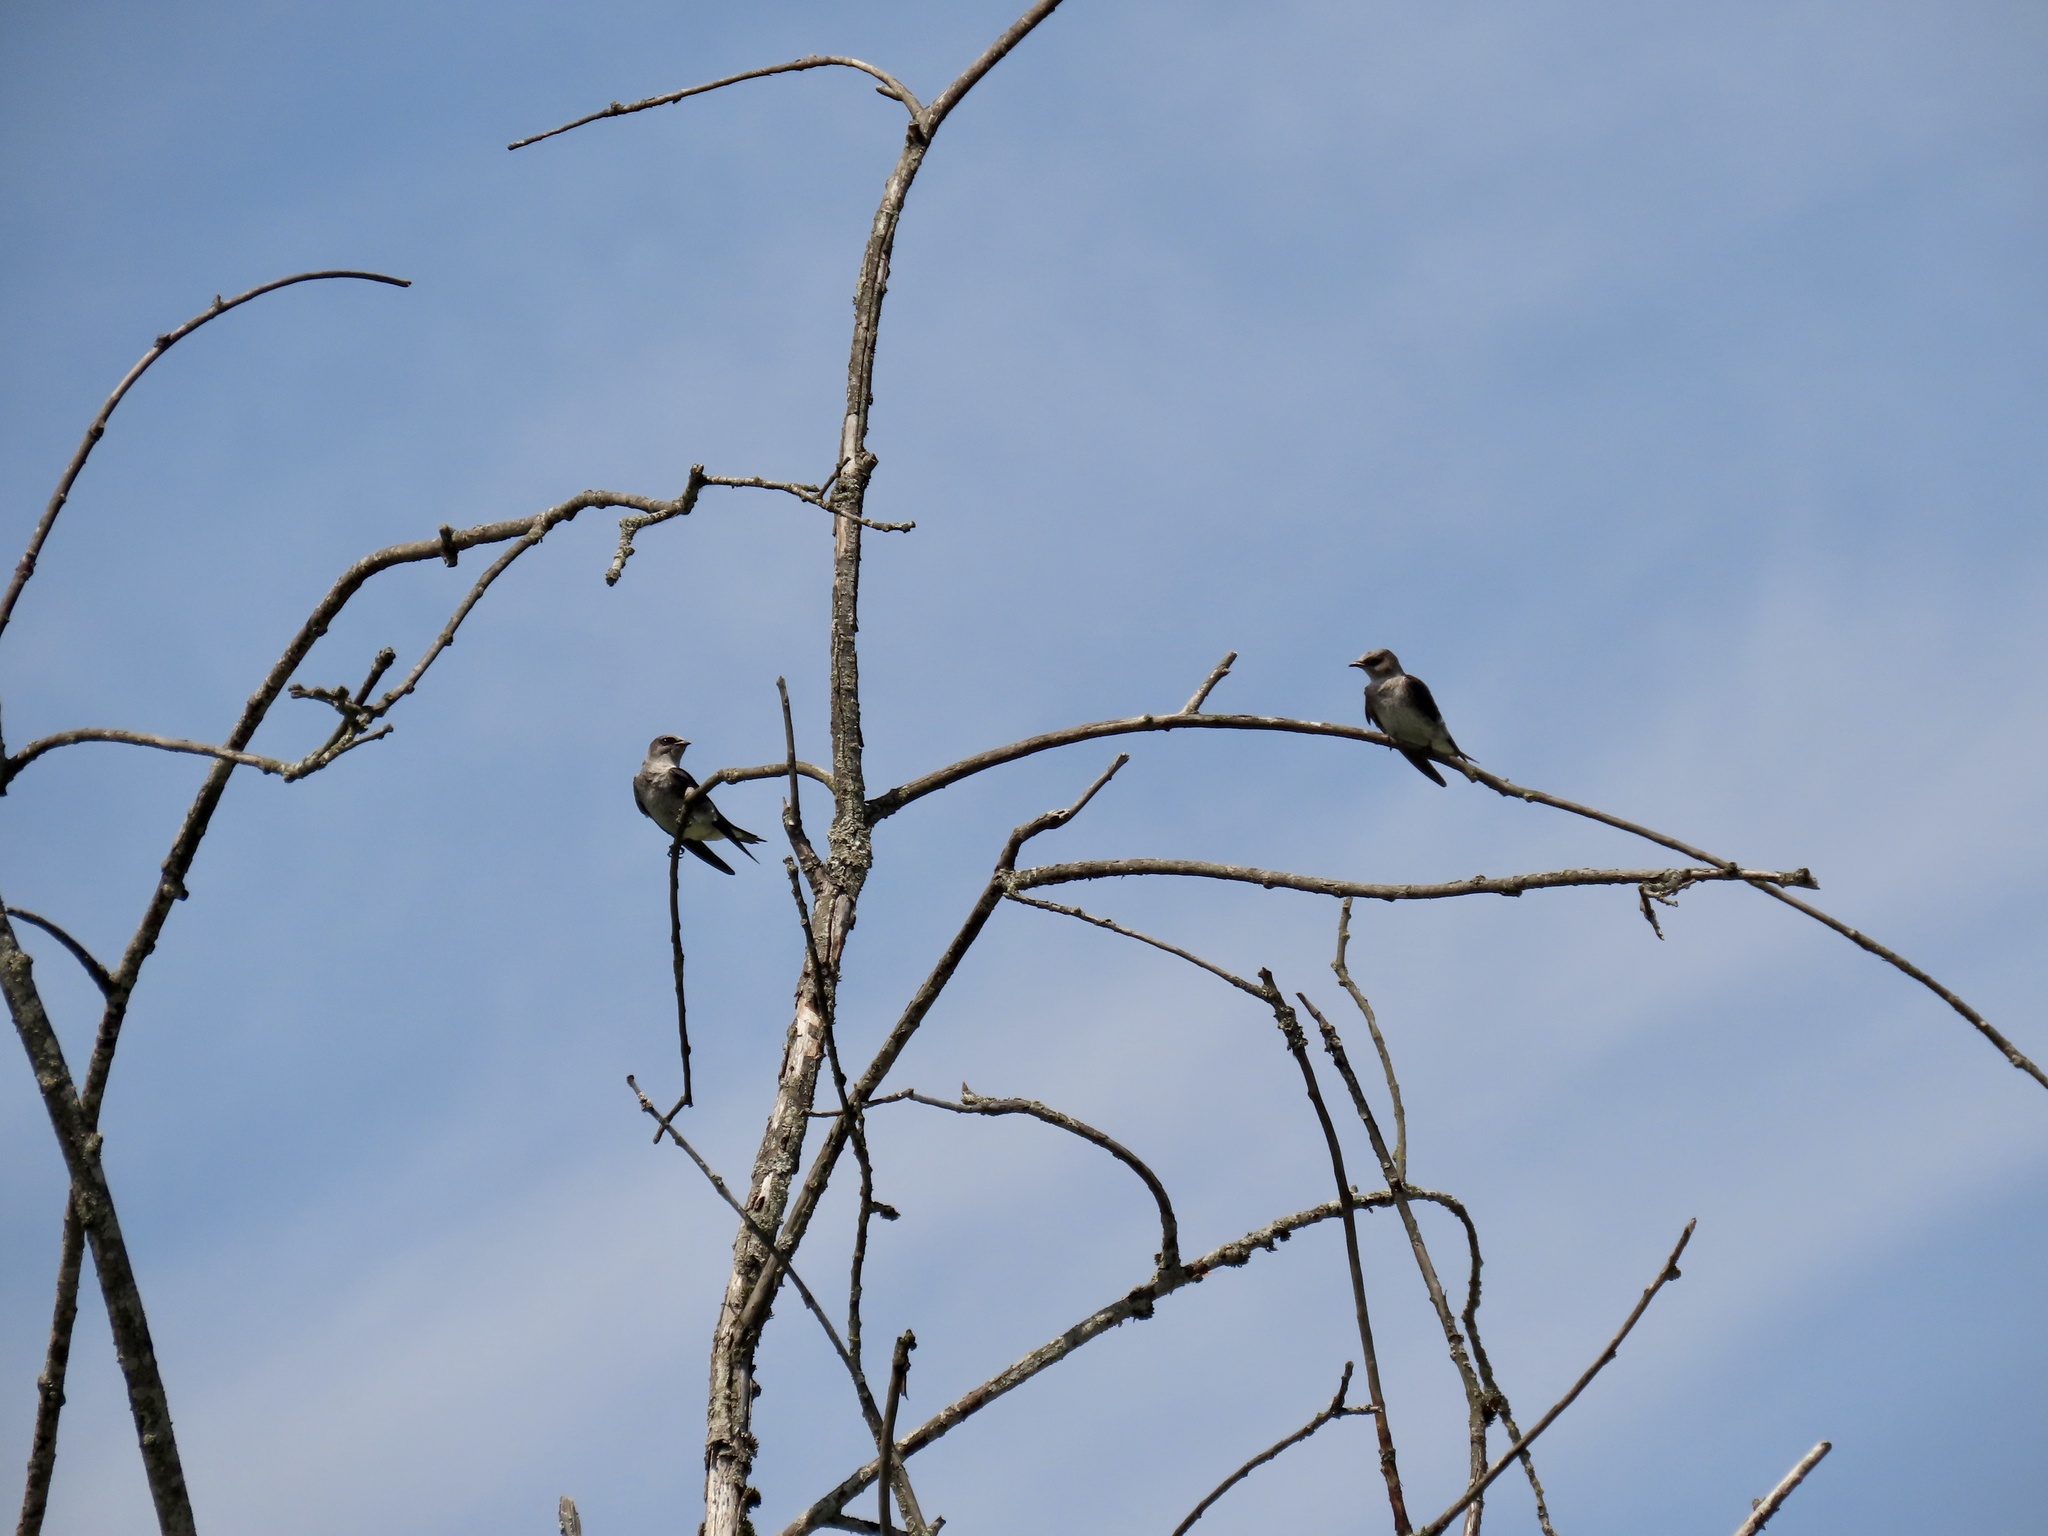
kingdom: Animalia
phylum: Chordata
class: Aves
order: Passeriformes
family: Hirundinidae
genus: Progne
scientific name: Progne subis
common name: Purple martin
